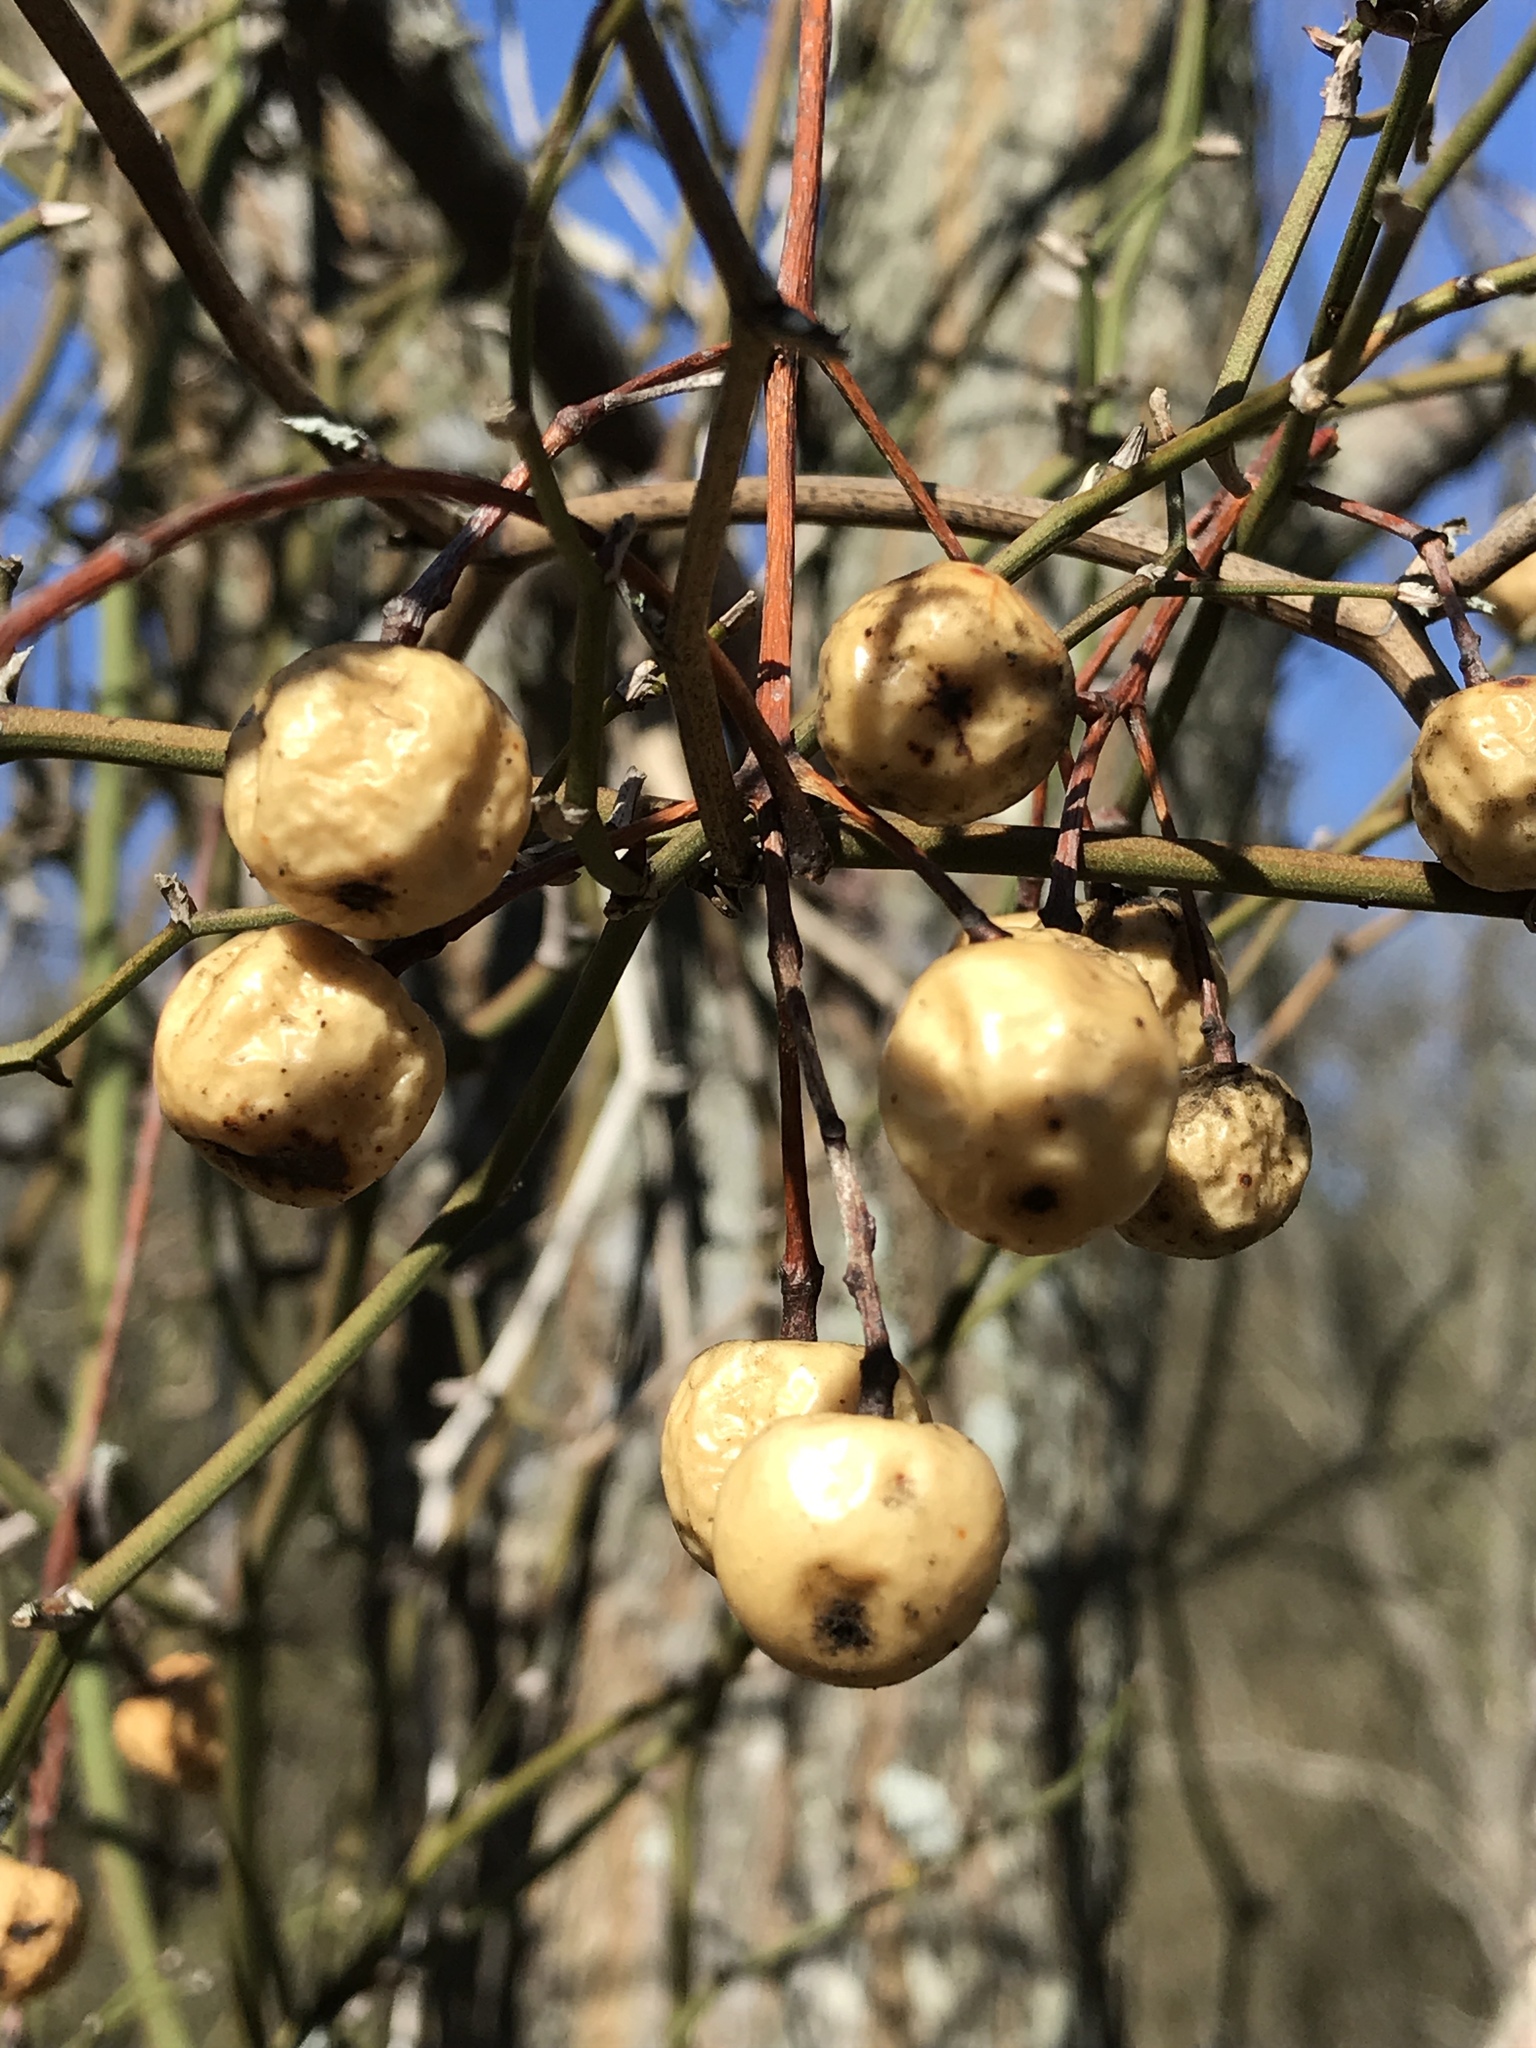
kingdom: Plantae
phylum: Tracheophyta
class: Magnoliopsida
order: Sapindales
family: Meliaceae
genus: Melia
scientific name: Melia azedarach
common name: Chinaberrytree
